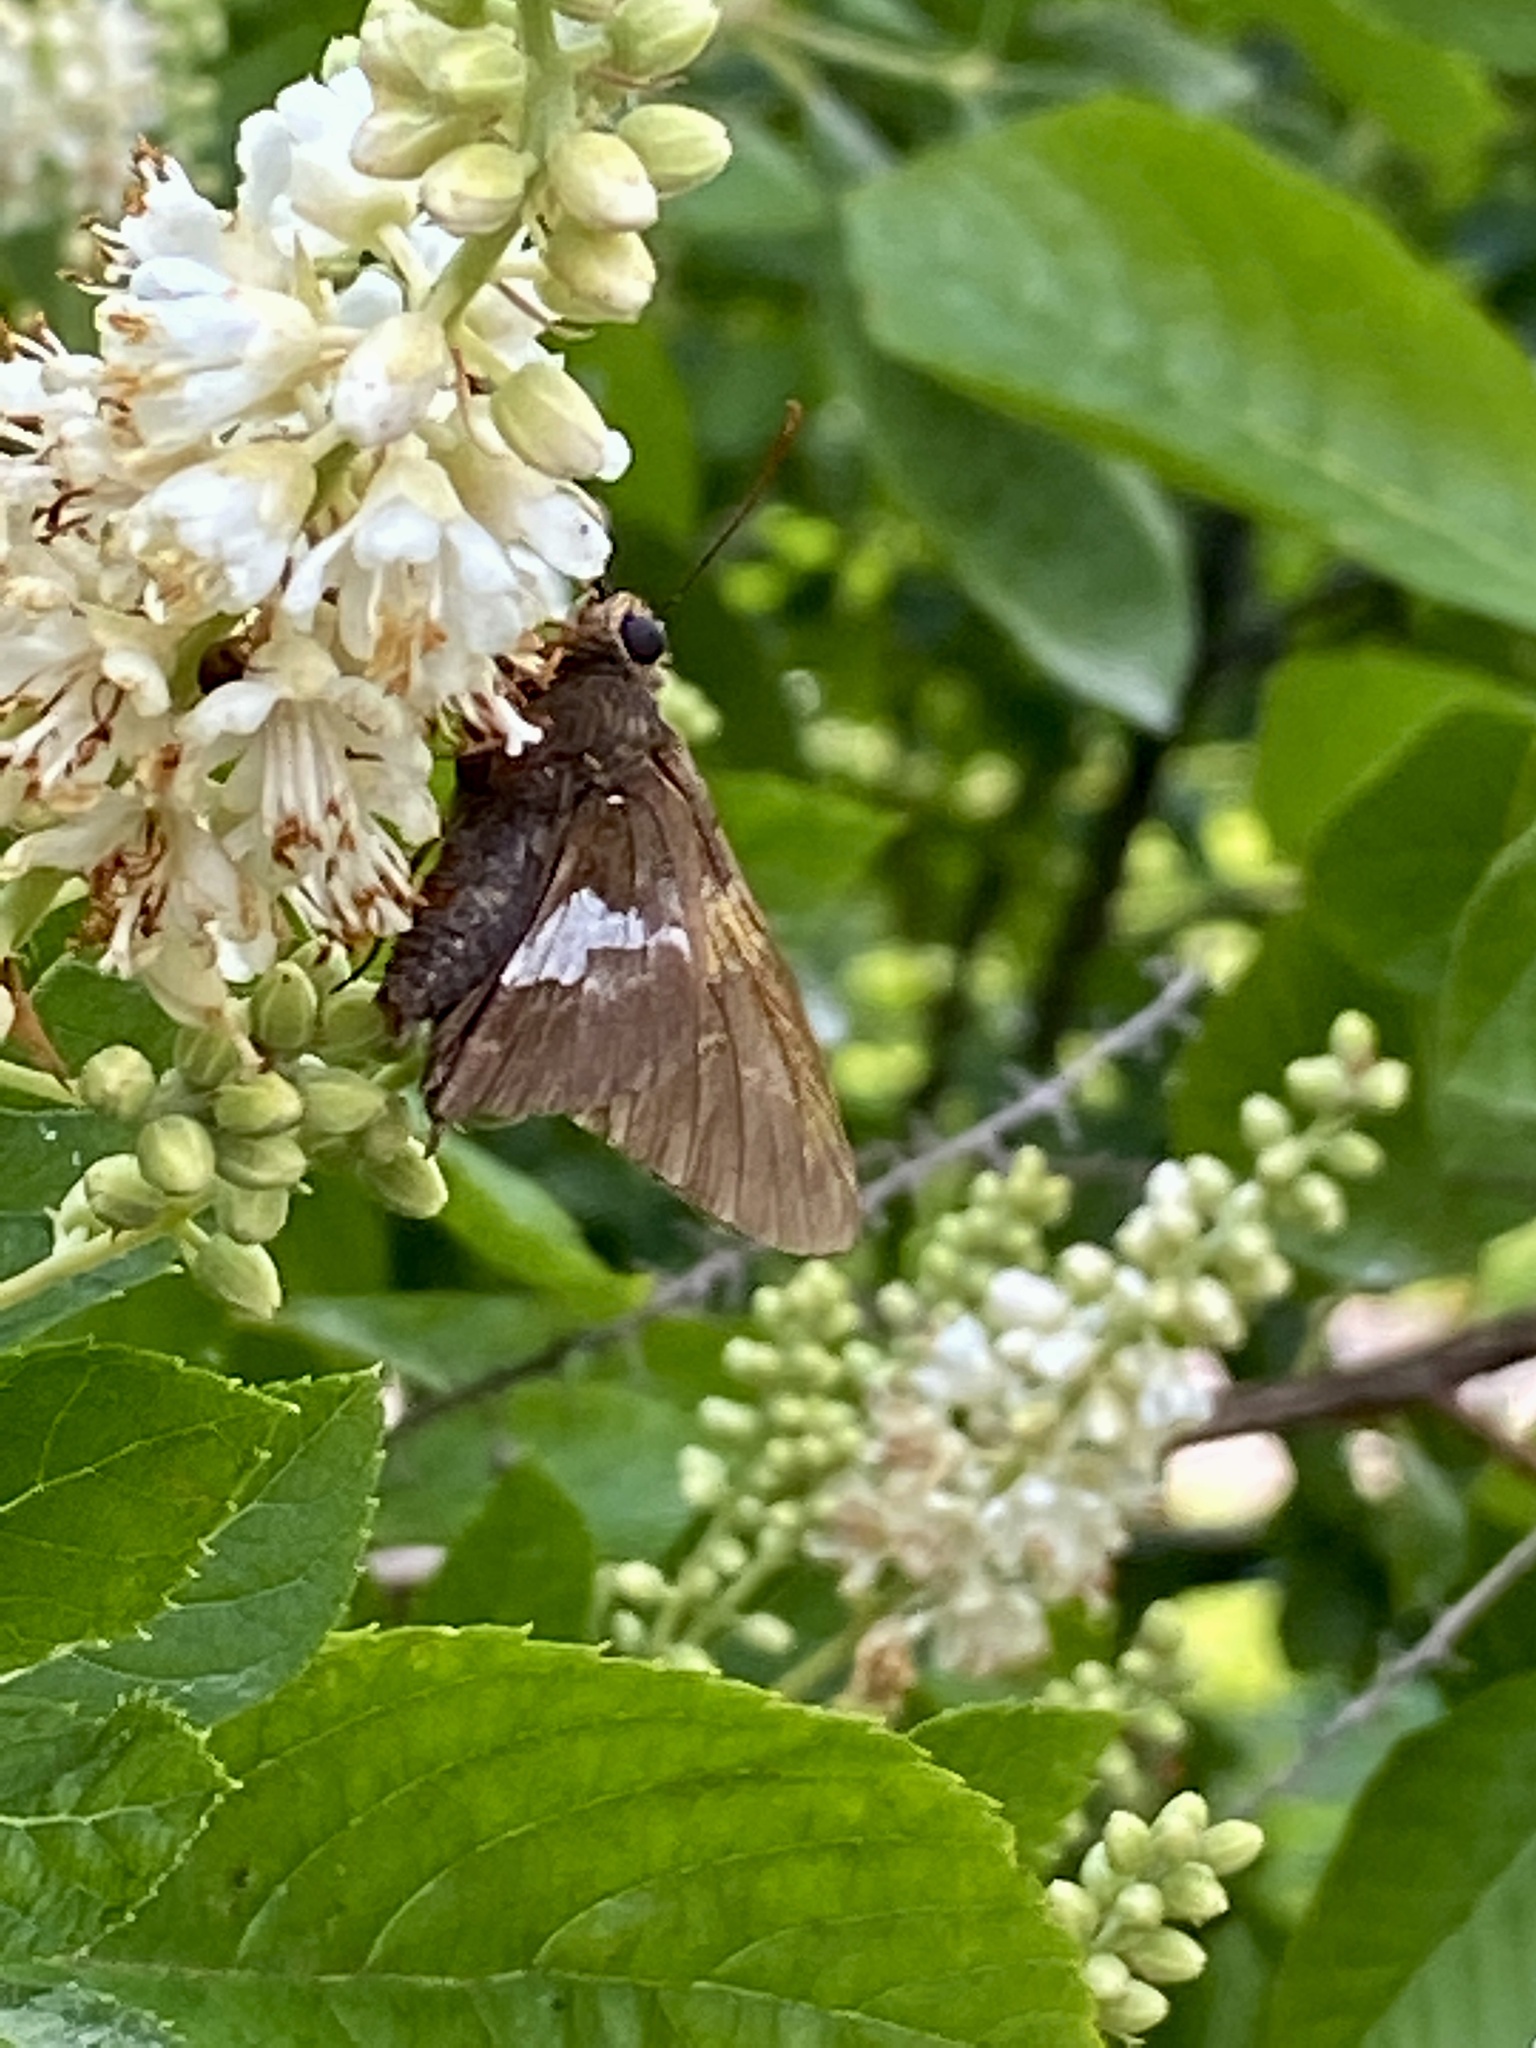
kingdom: Animalia
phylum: Arthropoda
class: Insecta
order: Lepidoptera
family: Hesperiidae
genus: Epargyreus
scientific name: Epargyreus clarus
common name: Silver-spotted skipper
